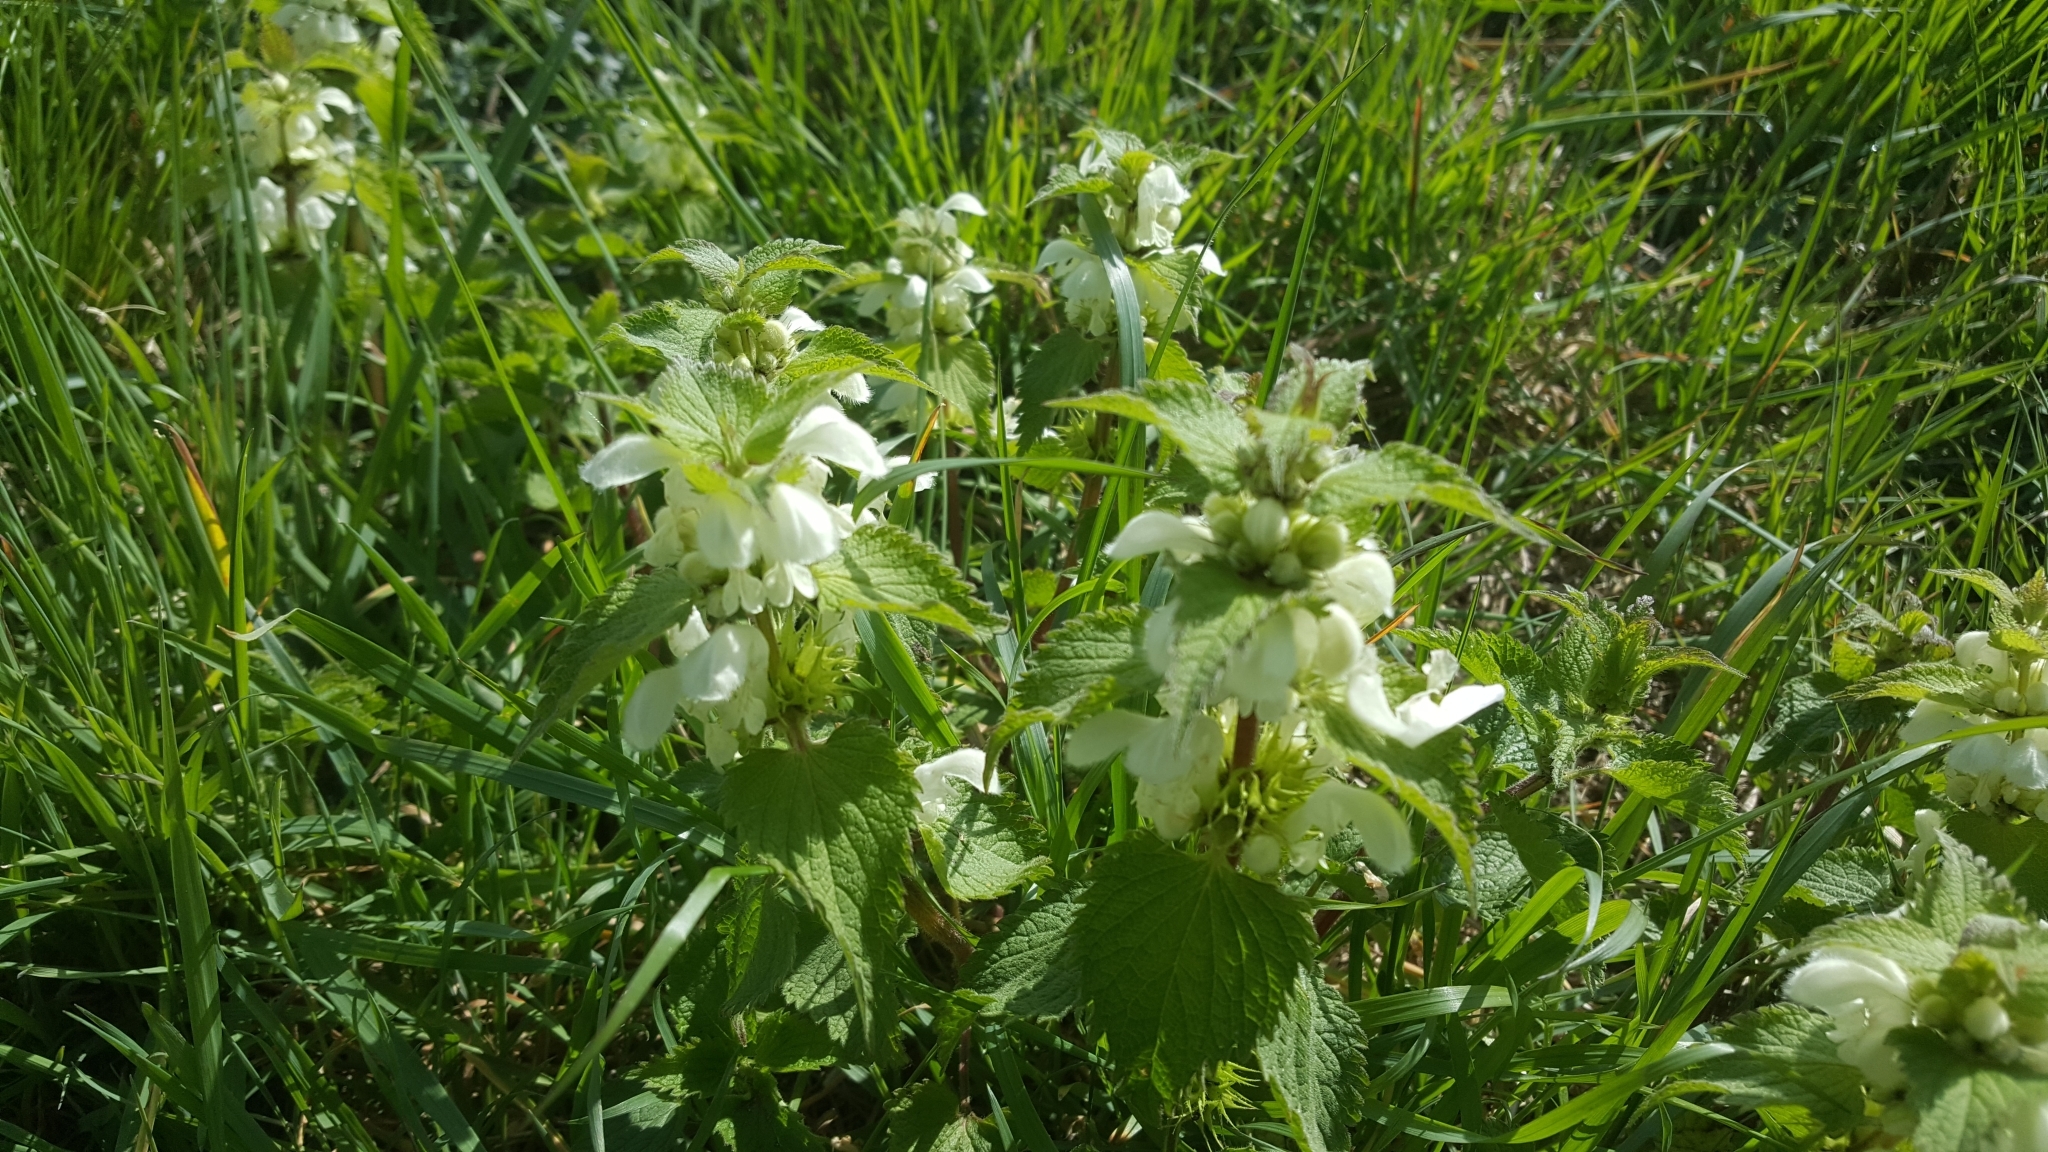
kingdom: Plantae
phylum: Tracheophyta
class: Magnoliopsida
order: Lamiales
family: Lamiaceae
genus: Lamium
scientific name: Lamium album
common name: White dead-nettle
